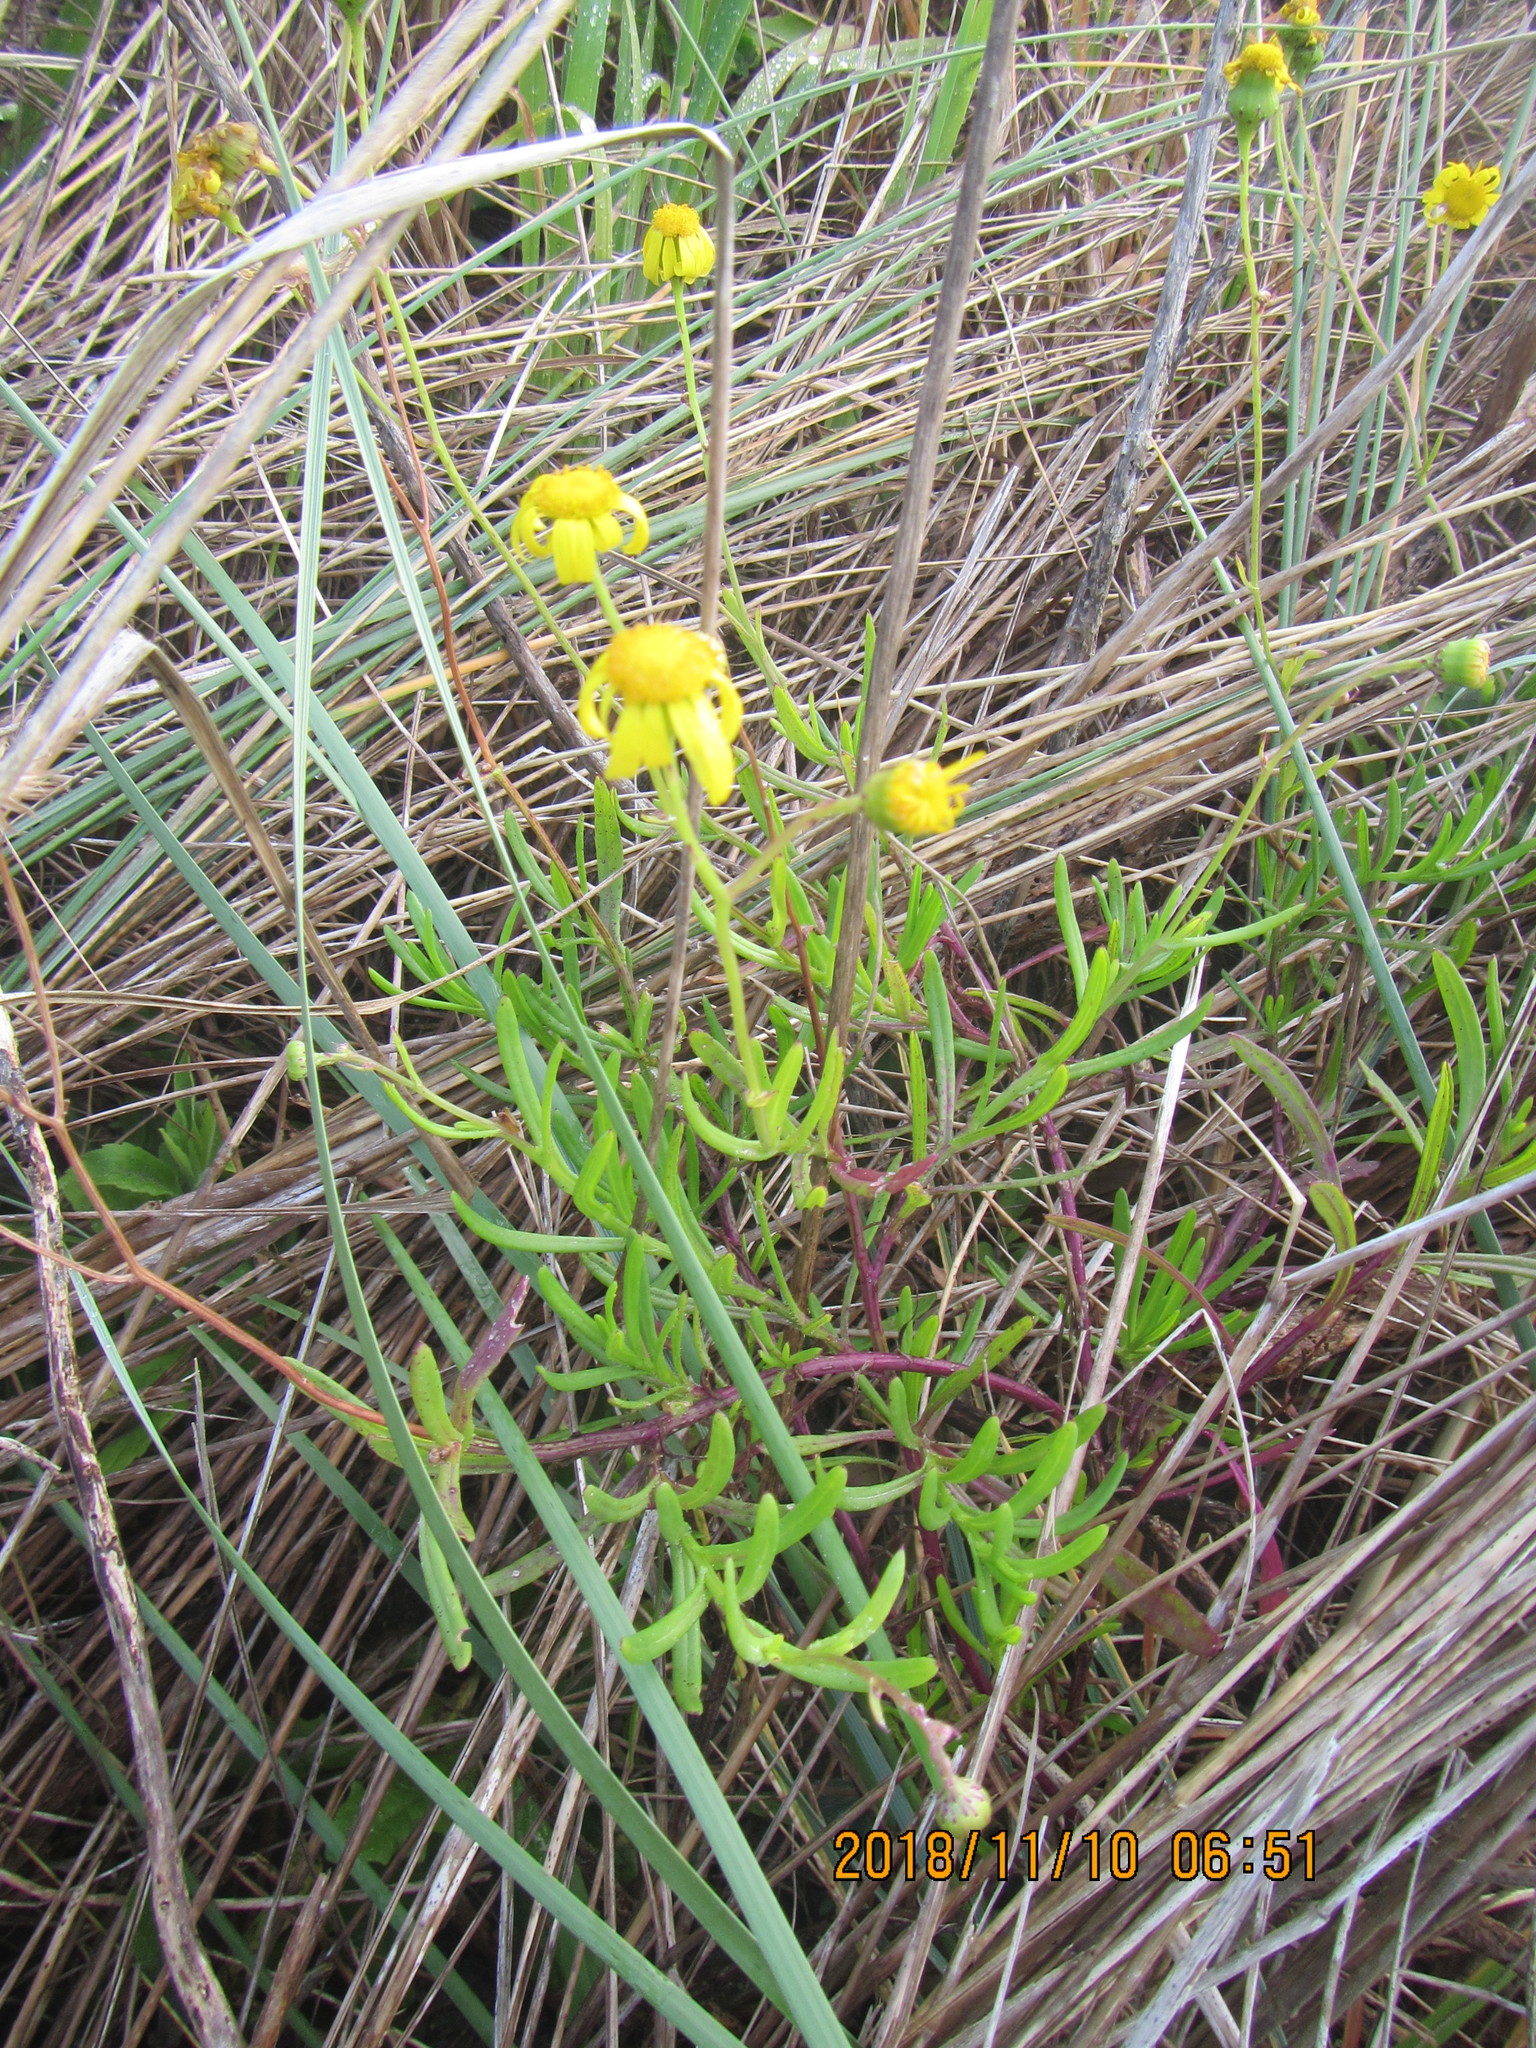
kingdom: Plantae
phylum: Tracheophyta
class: Magnoliopsida
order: Asterales
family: Asteraceae
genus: Senecio
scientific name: Senecio skirrhodon
